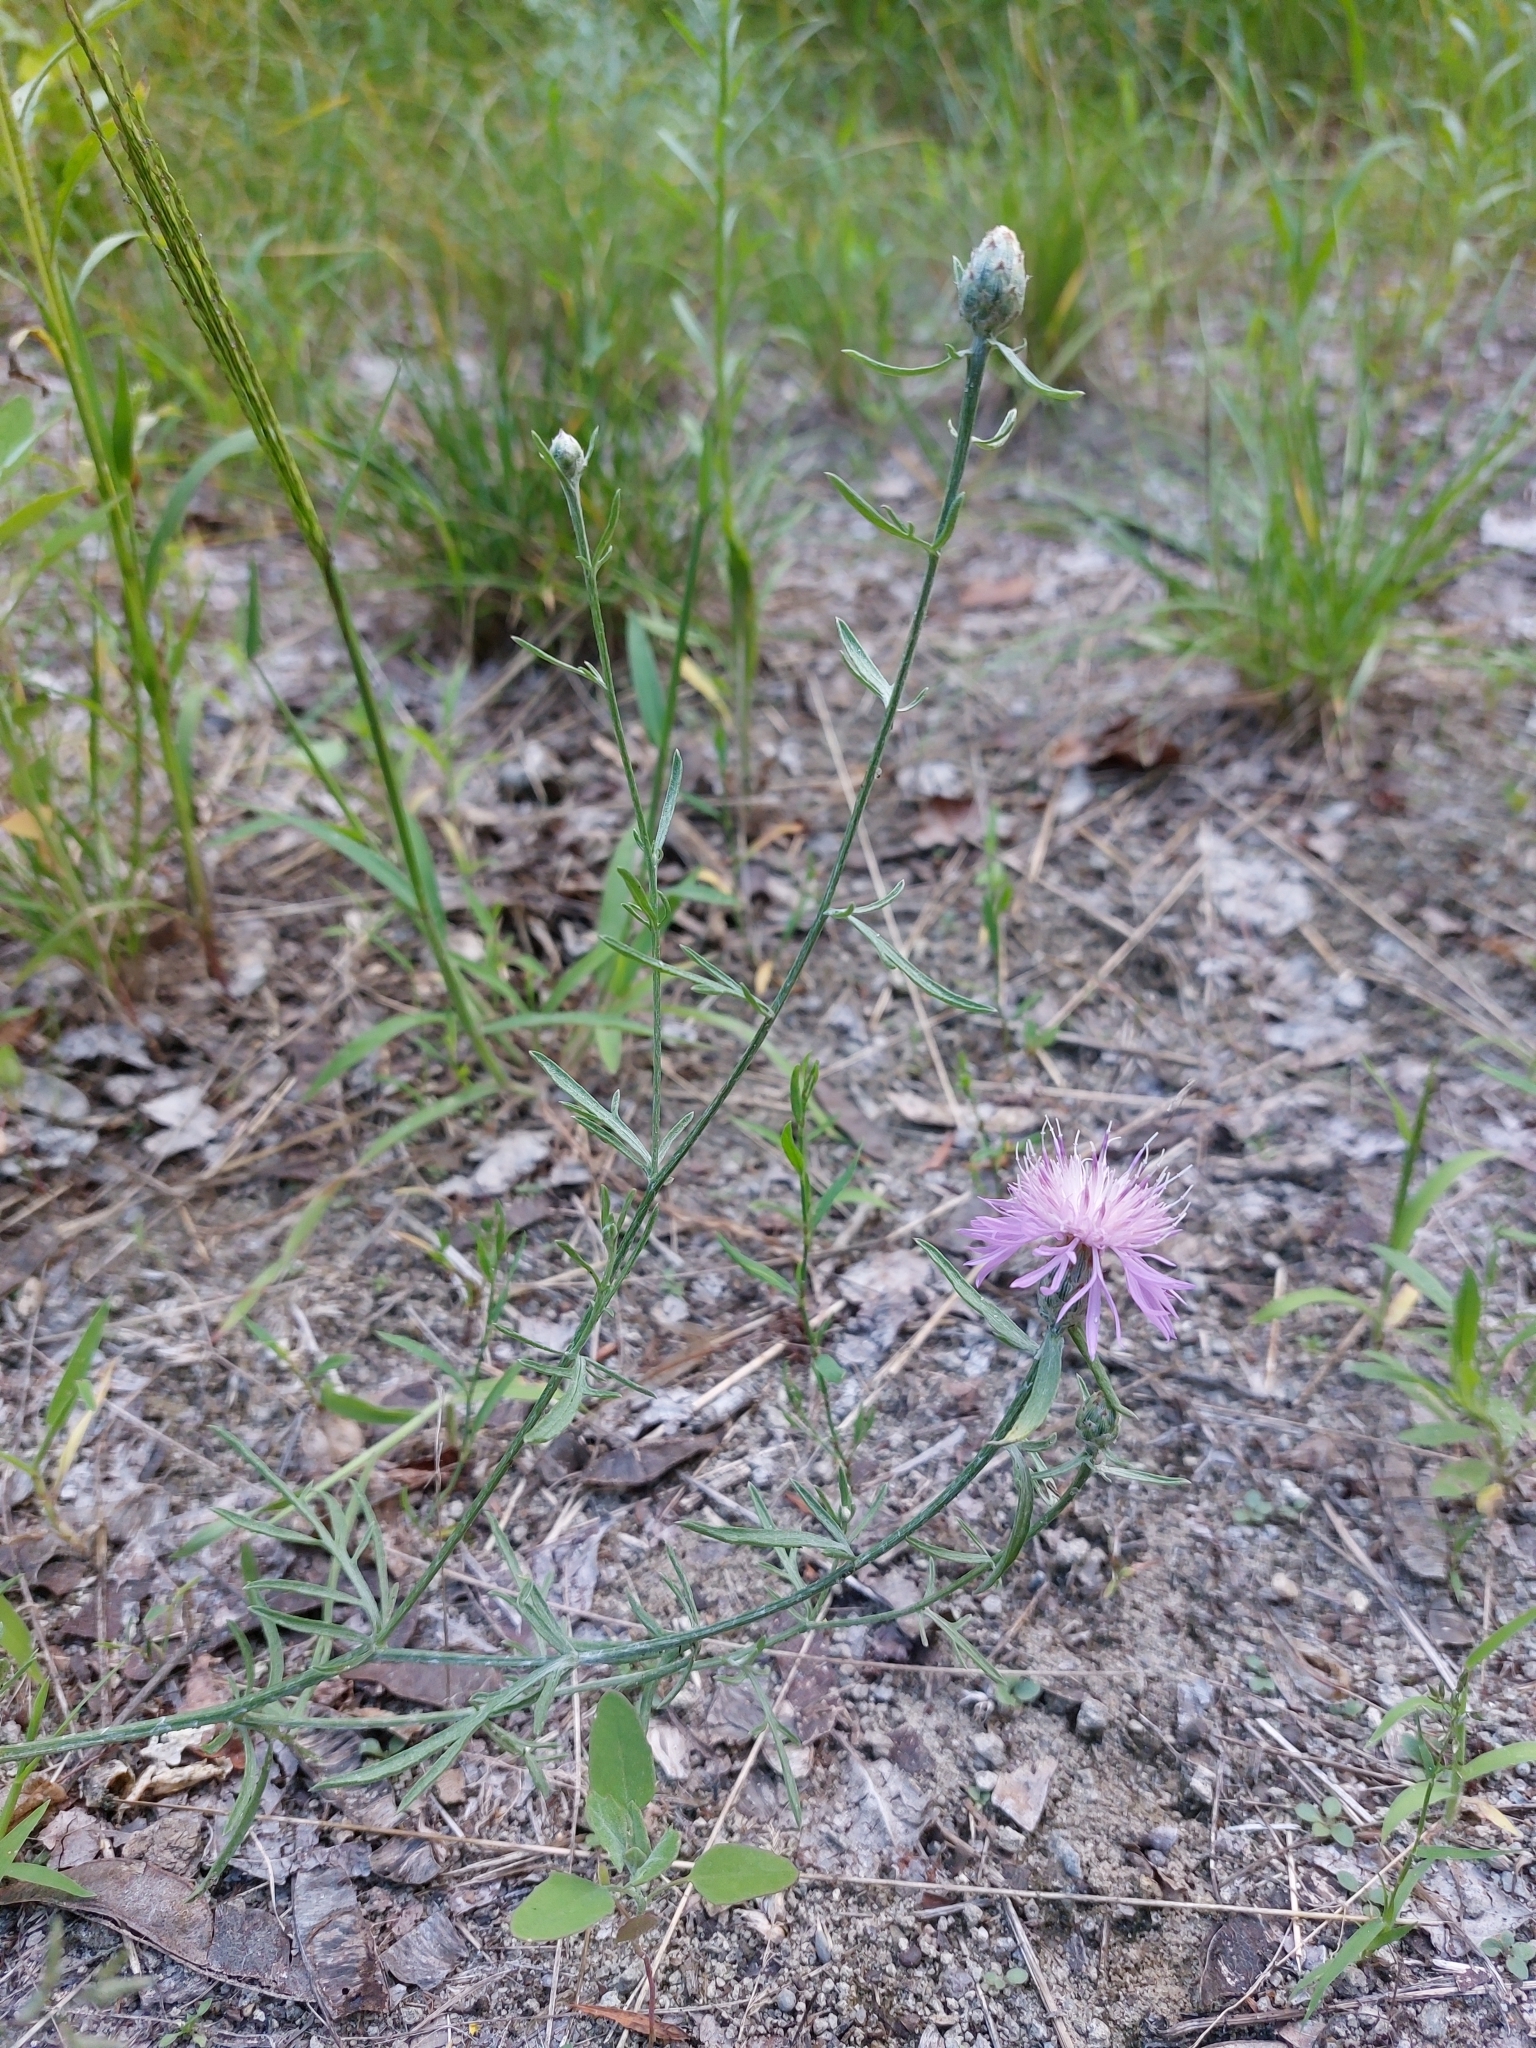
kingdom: Plantae
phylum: Tracheophyta
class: Magnoliopsida
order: Asterales
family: Asteraceae
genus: Centaurea
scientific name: Centaurea borysthenica
